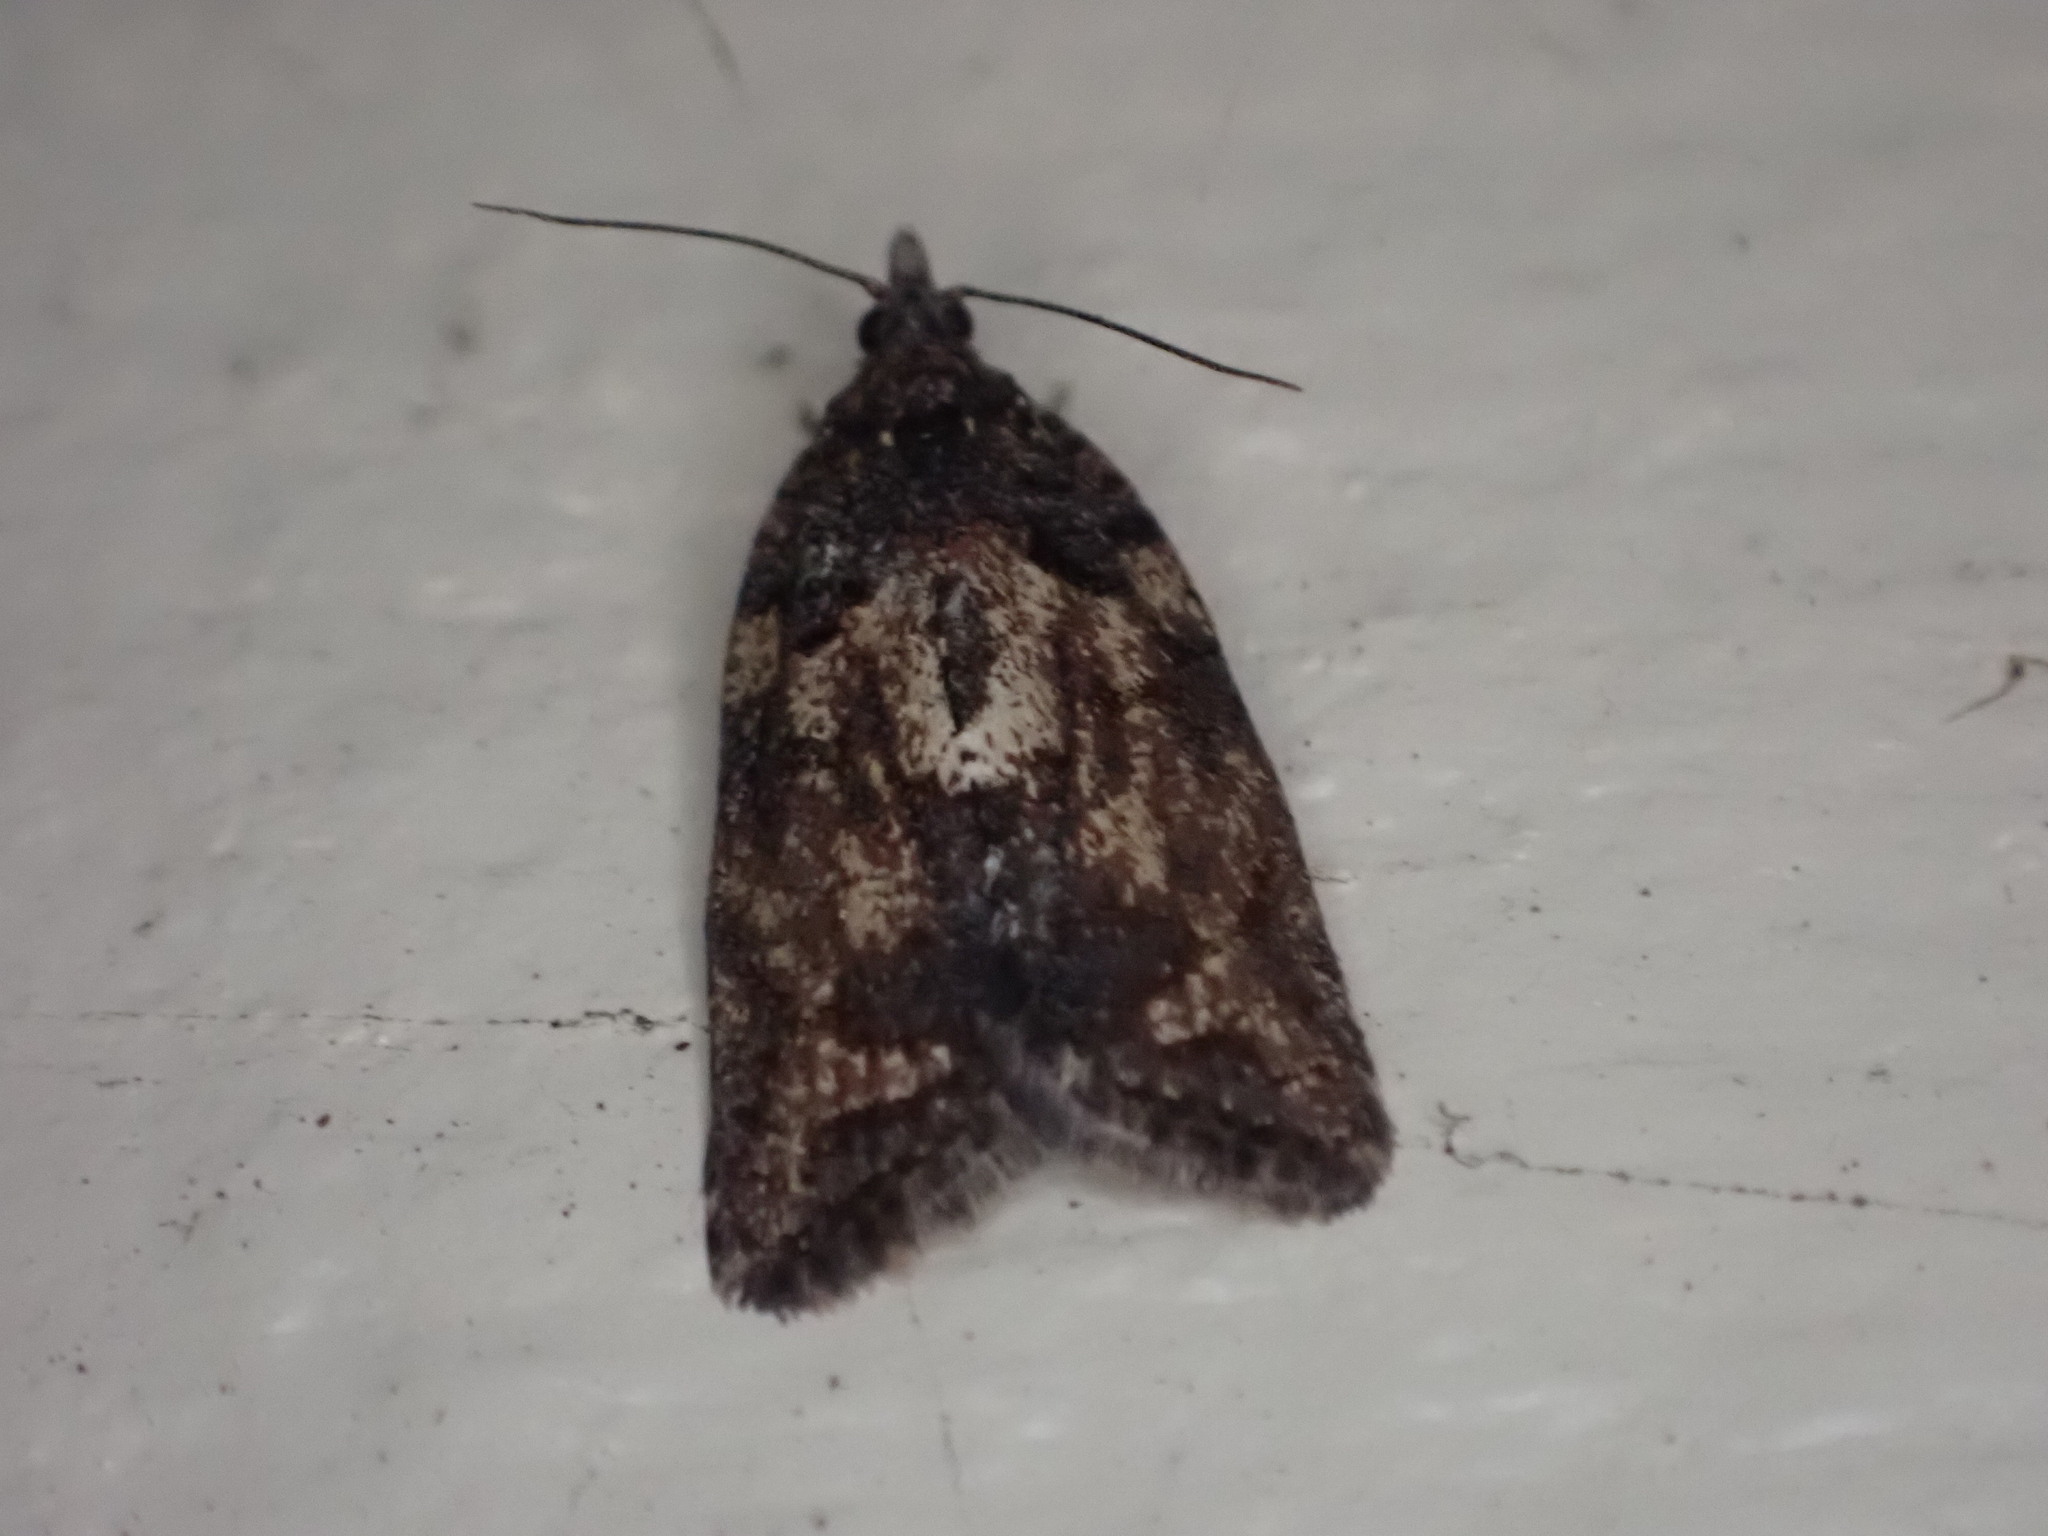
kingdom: Animalia
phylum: Arthropoda
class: Insecta
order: Lepidoptera
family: Tortricidae
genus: Capua
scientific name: Capua intractana
